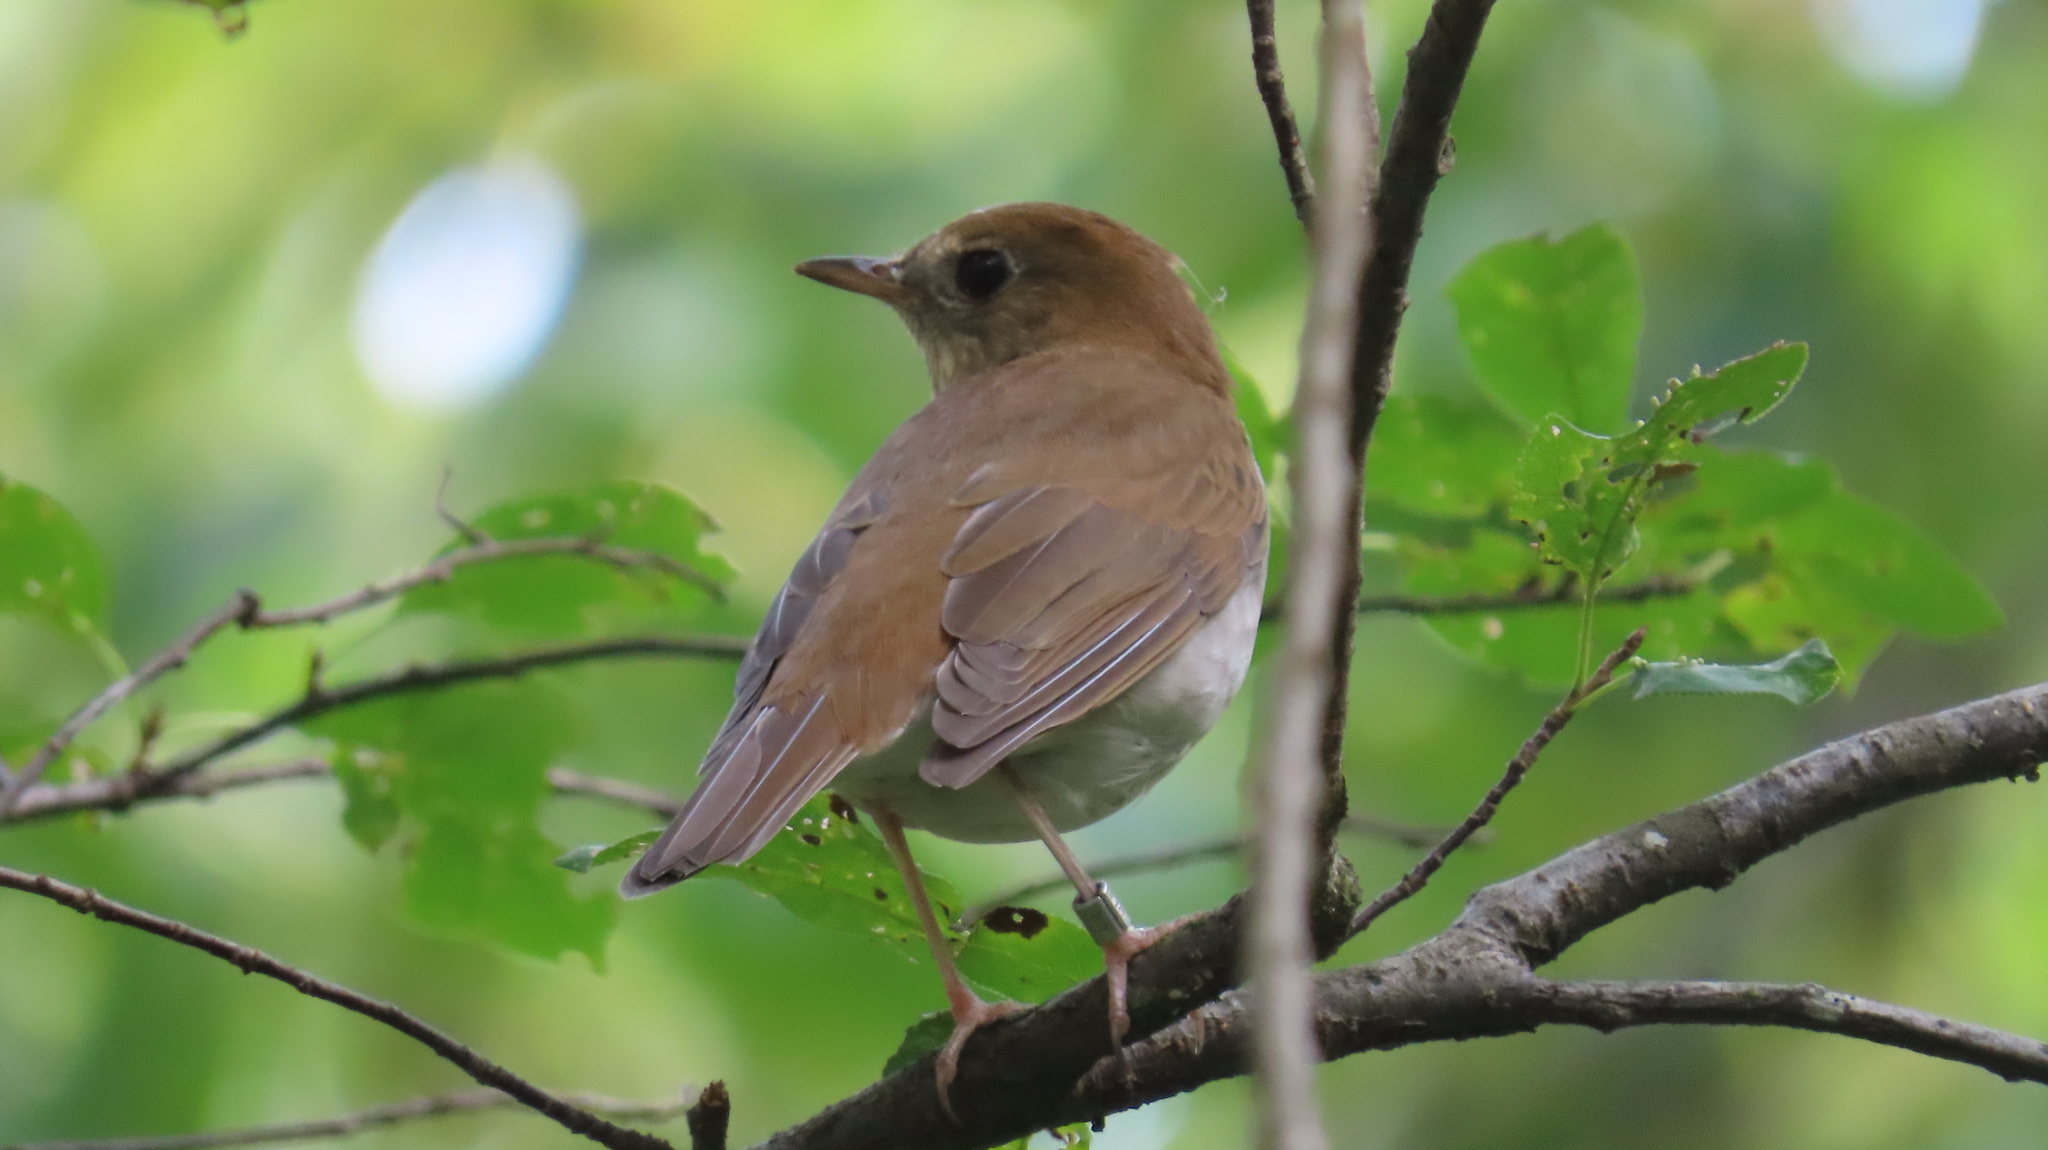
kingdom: Animalia
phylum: Chordata
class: Aves
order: Passeriformes
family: Turdidae
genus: Catharus
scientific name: Catharus fuscescens
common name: Veery
